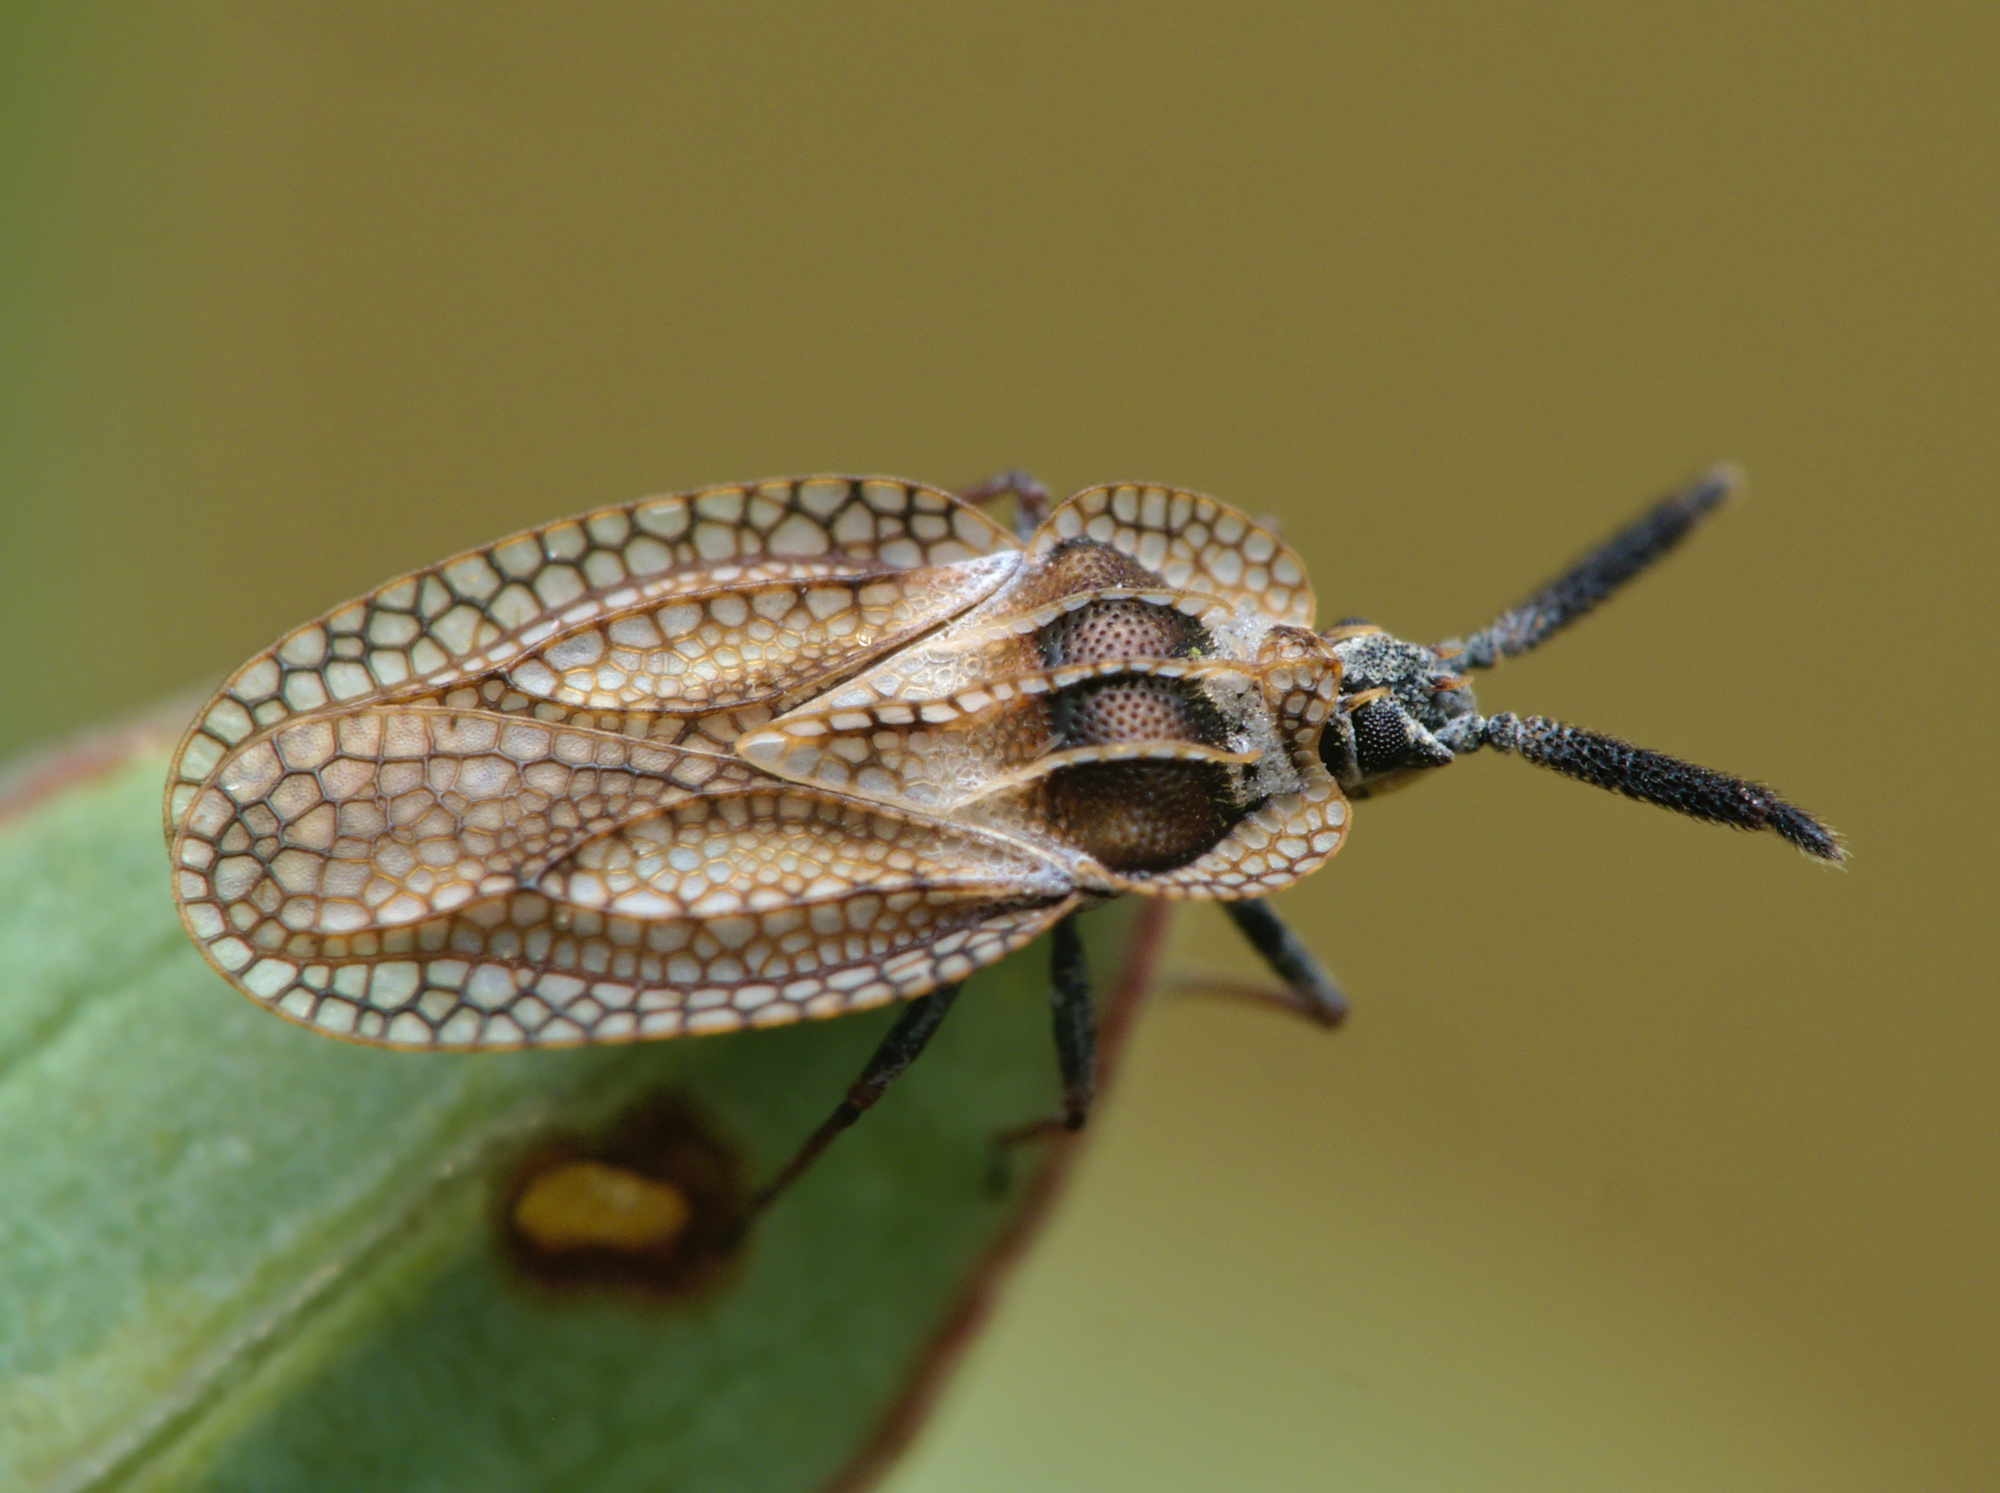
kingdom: Animalia
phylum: Arthropoda
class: Insecta
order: Hemiptera
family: Tingidae
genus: Dictyonota
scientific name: Dictyonota strichnocera
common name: Gorse lacebug
